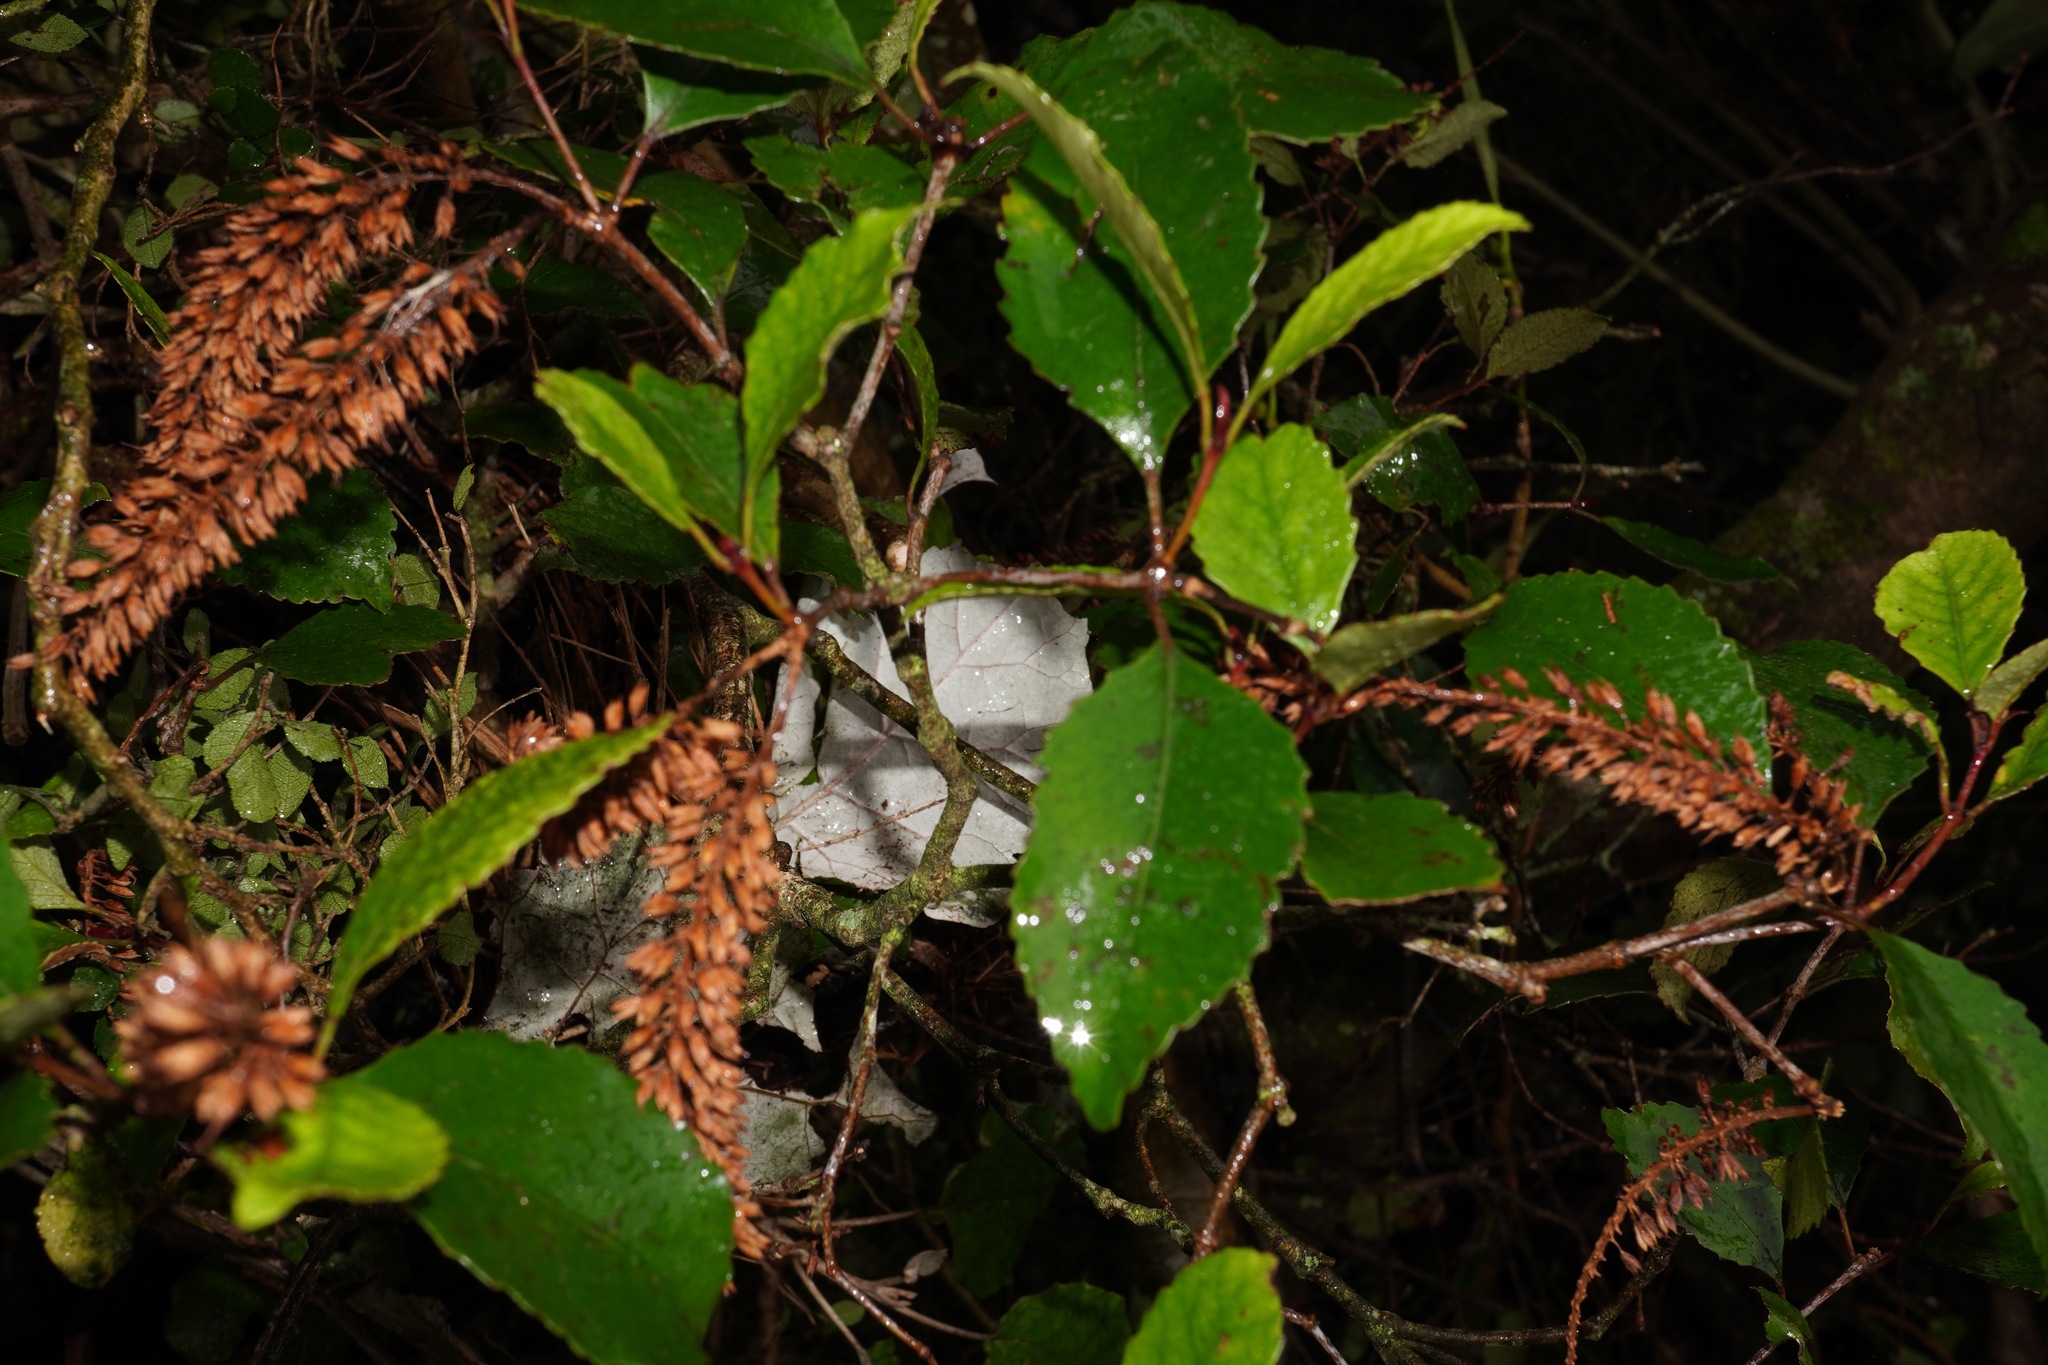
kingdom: Plantae
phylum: Tracheophyta
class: Magnoliopsida
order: Oxalidales
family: Cunoniaceae
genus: Pterophylla
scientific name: Pterophylla racemosa
